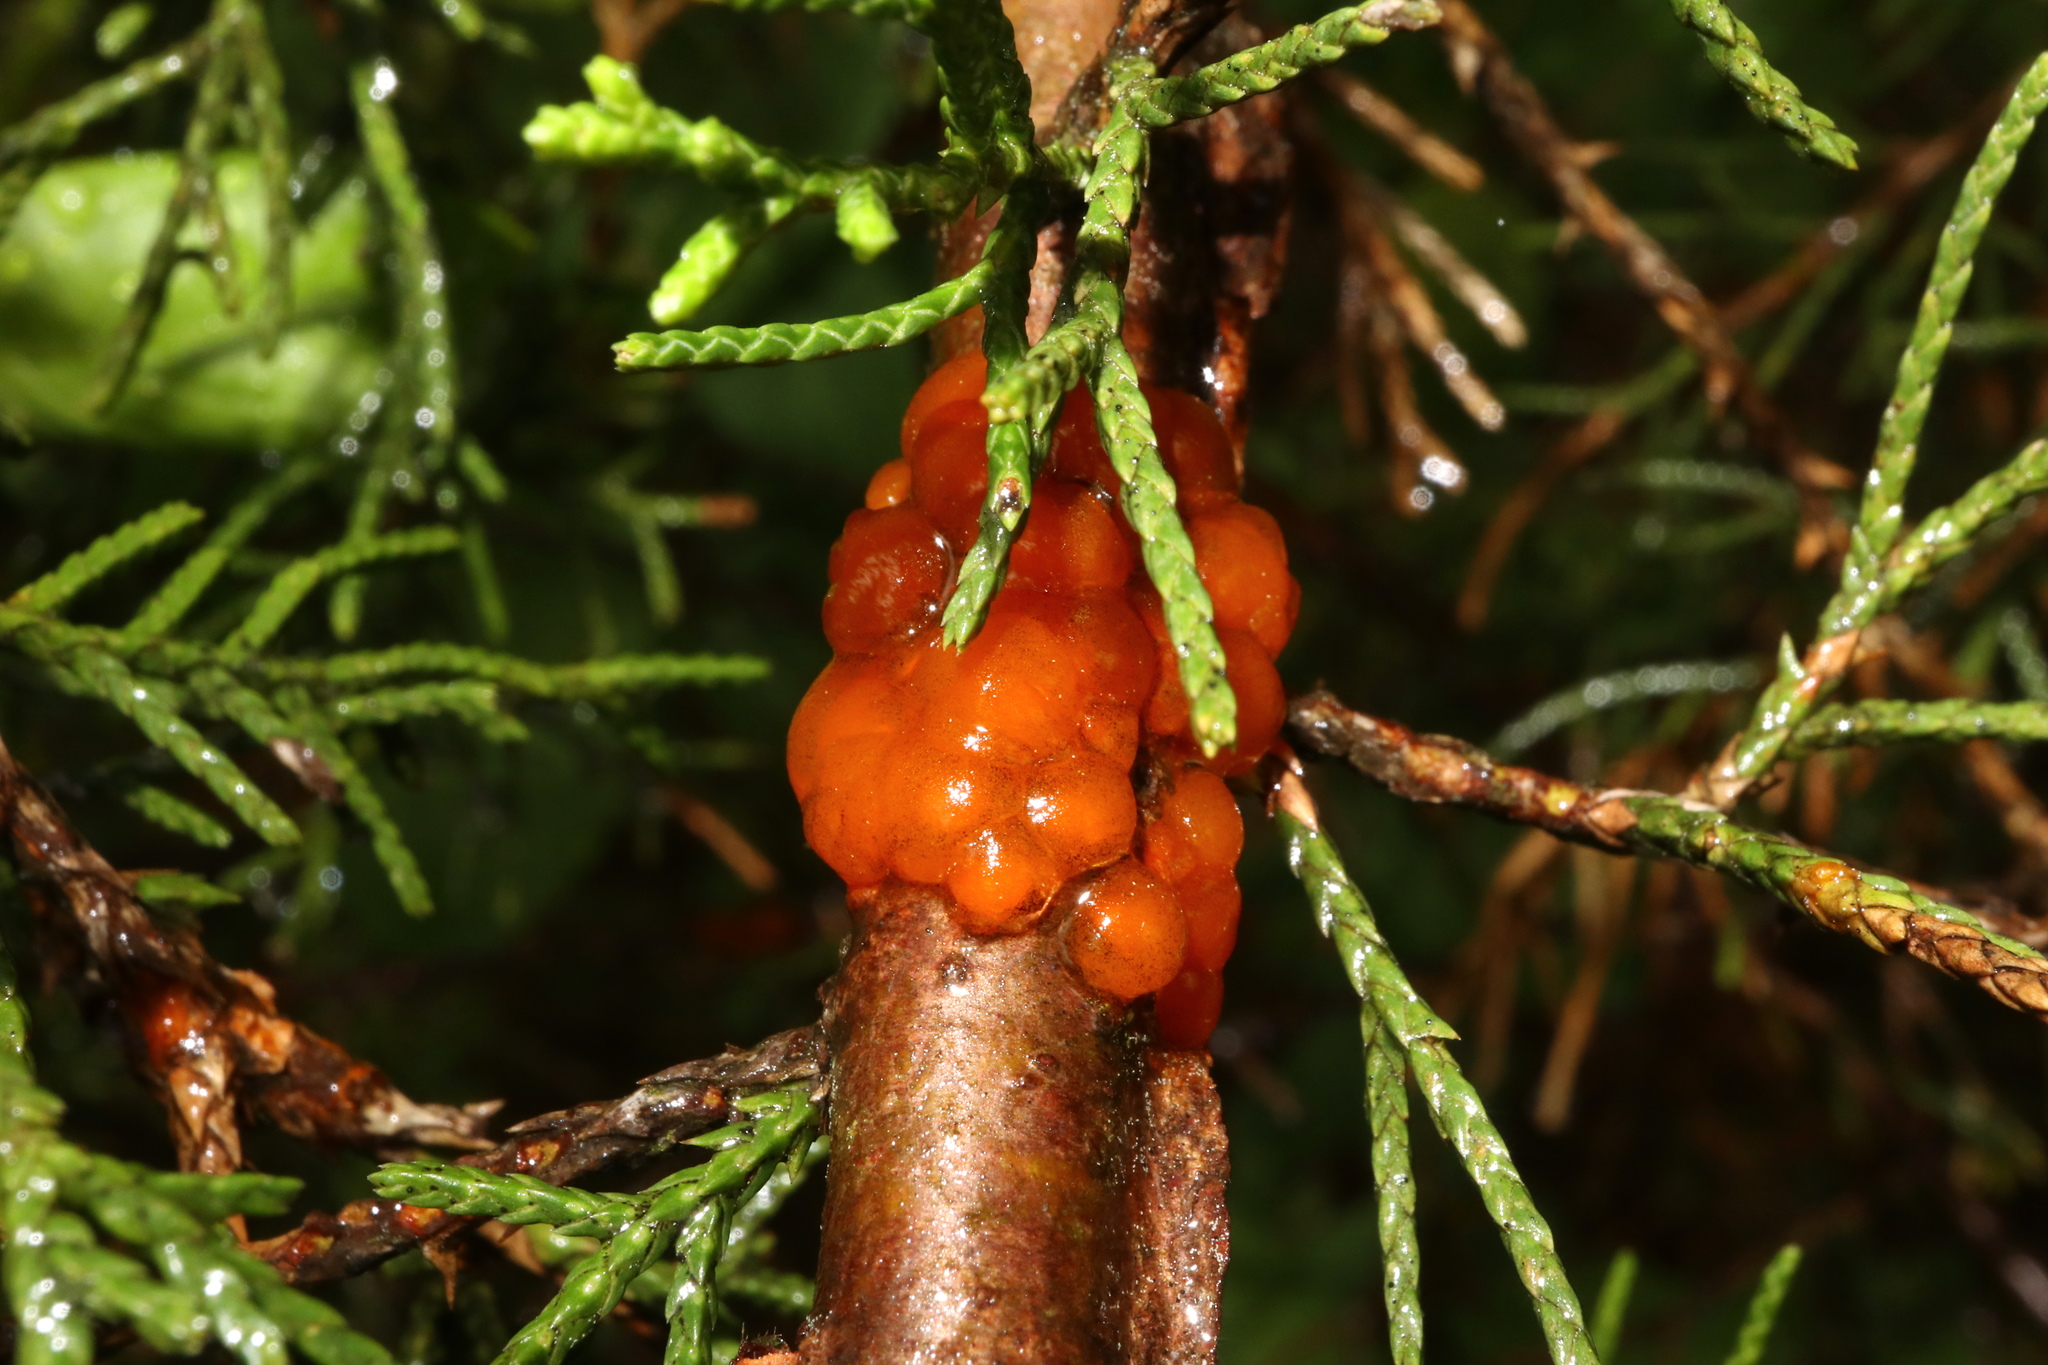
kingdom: Fungi
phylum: Basidiomycota
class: Pucciniomycetes
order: Pucciniales
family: Gymnosporangiaceae
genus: Gymnosporangium
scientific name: Gymnosporangium juniperi-virginianae
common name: Juniper-apple rust
